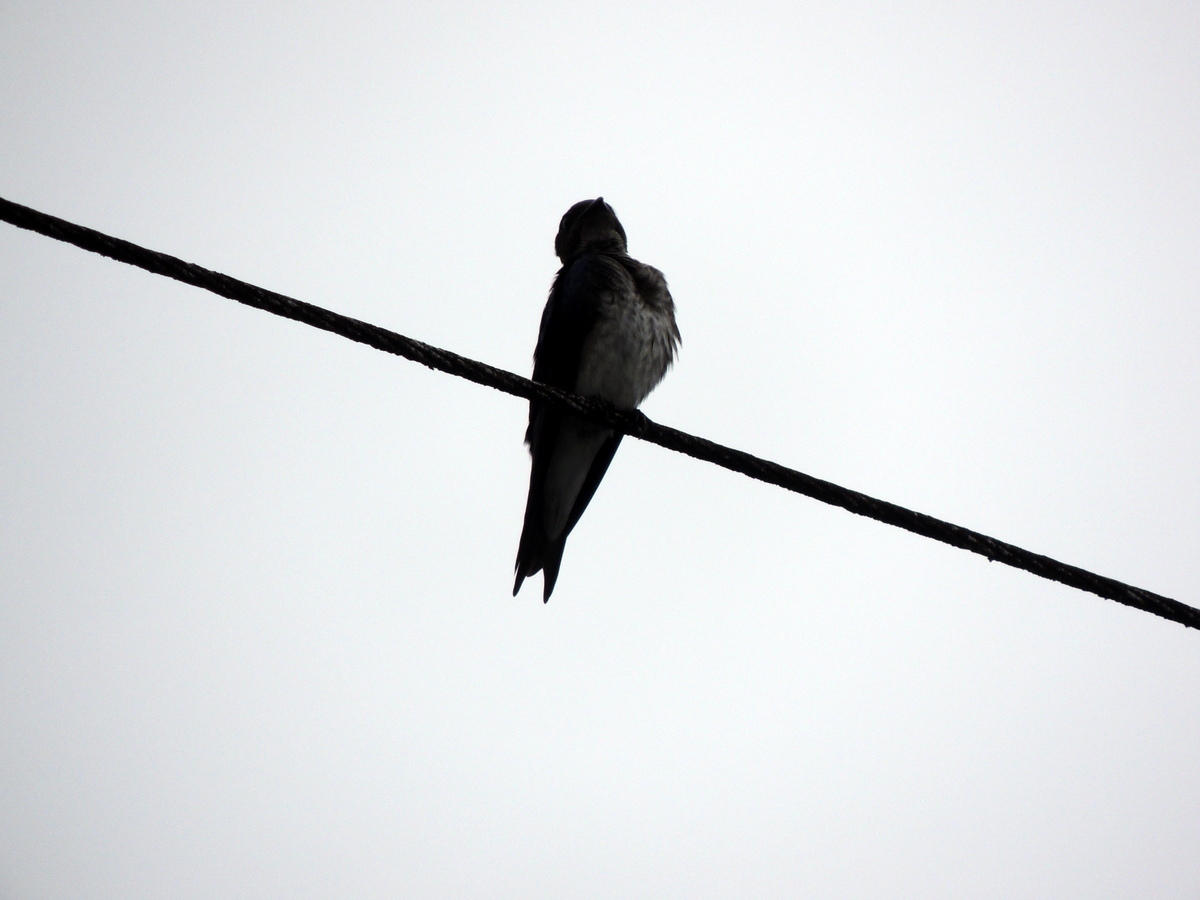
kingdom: Animalia
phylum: Chordata
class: Aves
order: Passeriformes
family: Hirundinidae
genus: Progne
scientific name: Progne chalybea
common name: Grey-breasted martin
